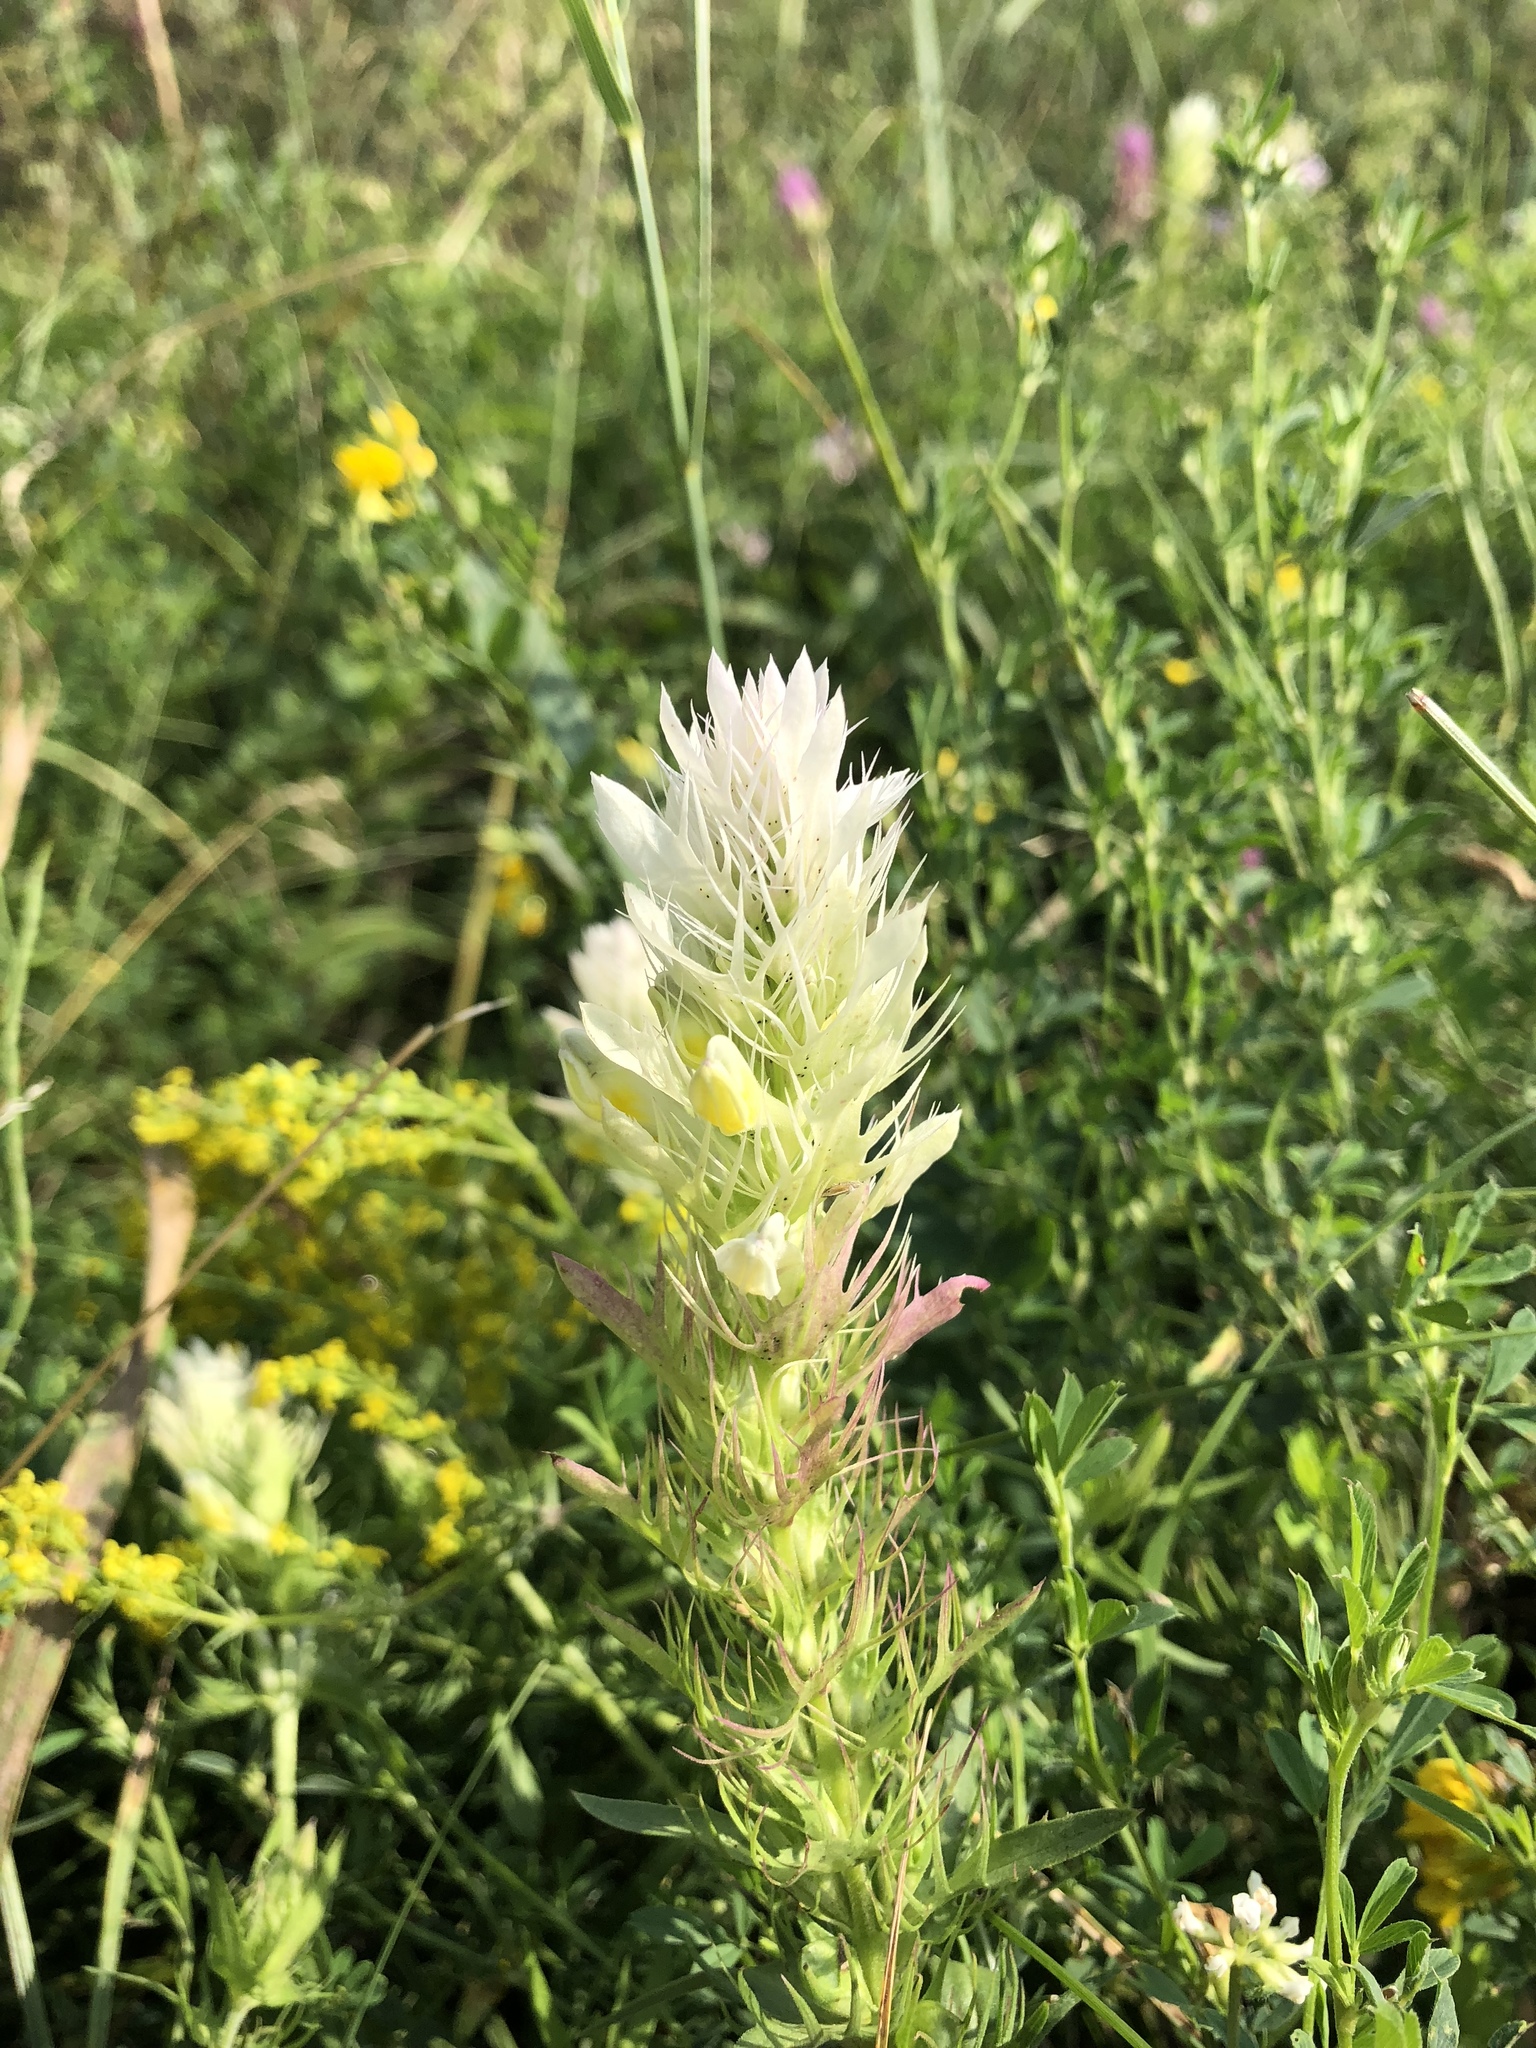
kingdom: Plantae
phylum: Tracheophyta
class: Magnoliopsida
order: Lamiales
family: Orobanchaceae
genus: Melampyrum
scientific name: Melampyrum arvense
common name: Field cow-wheat
